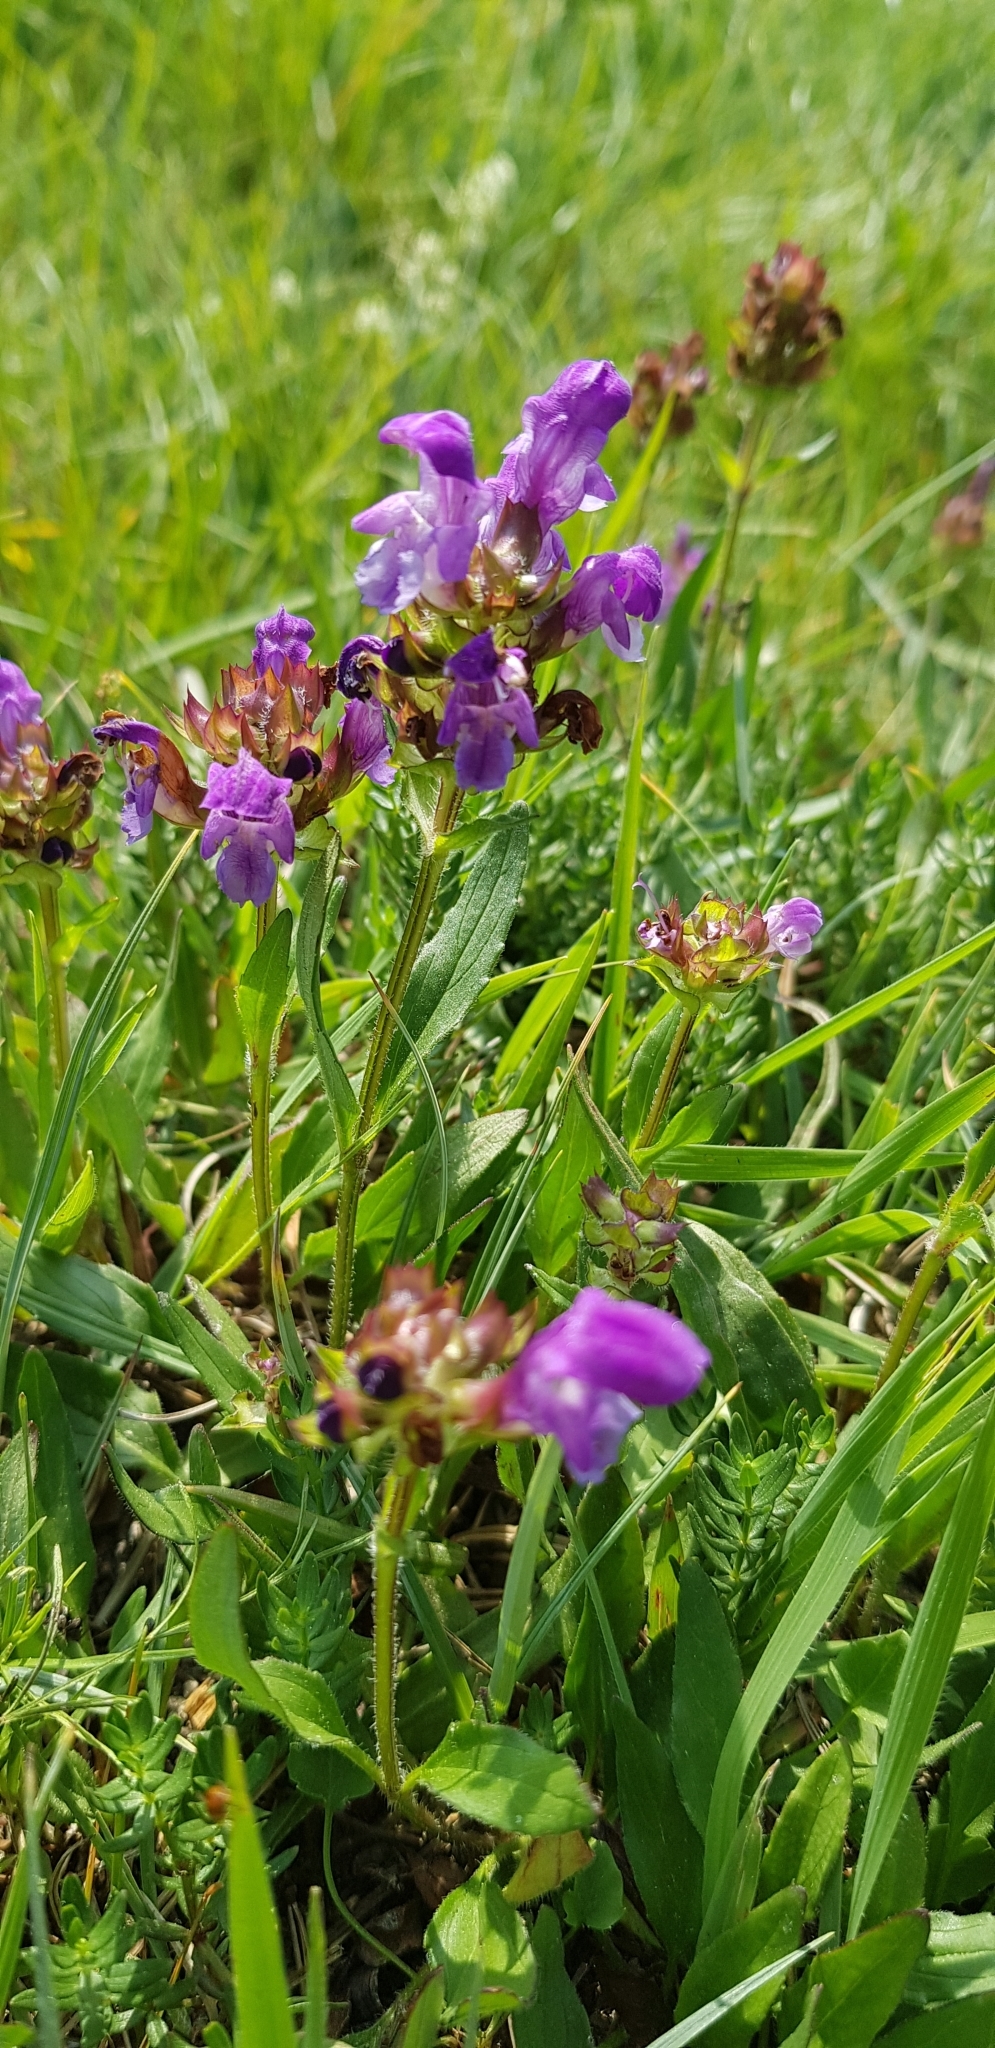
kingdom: Plantae
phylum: Tracheophyta
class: Magnoliopsida
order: Lamiales
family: Lamiaceae
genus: Prunella
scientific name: Prunella grandiflora
